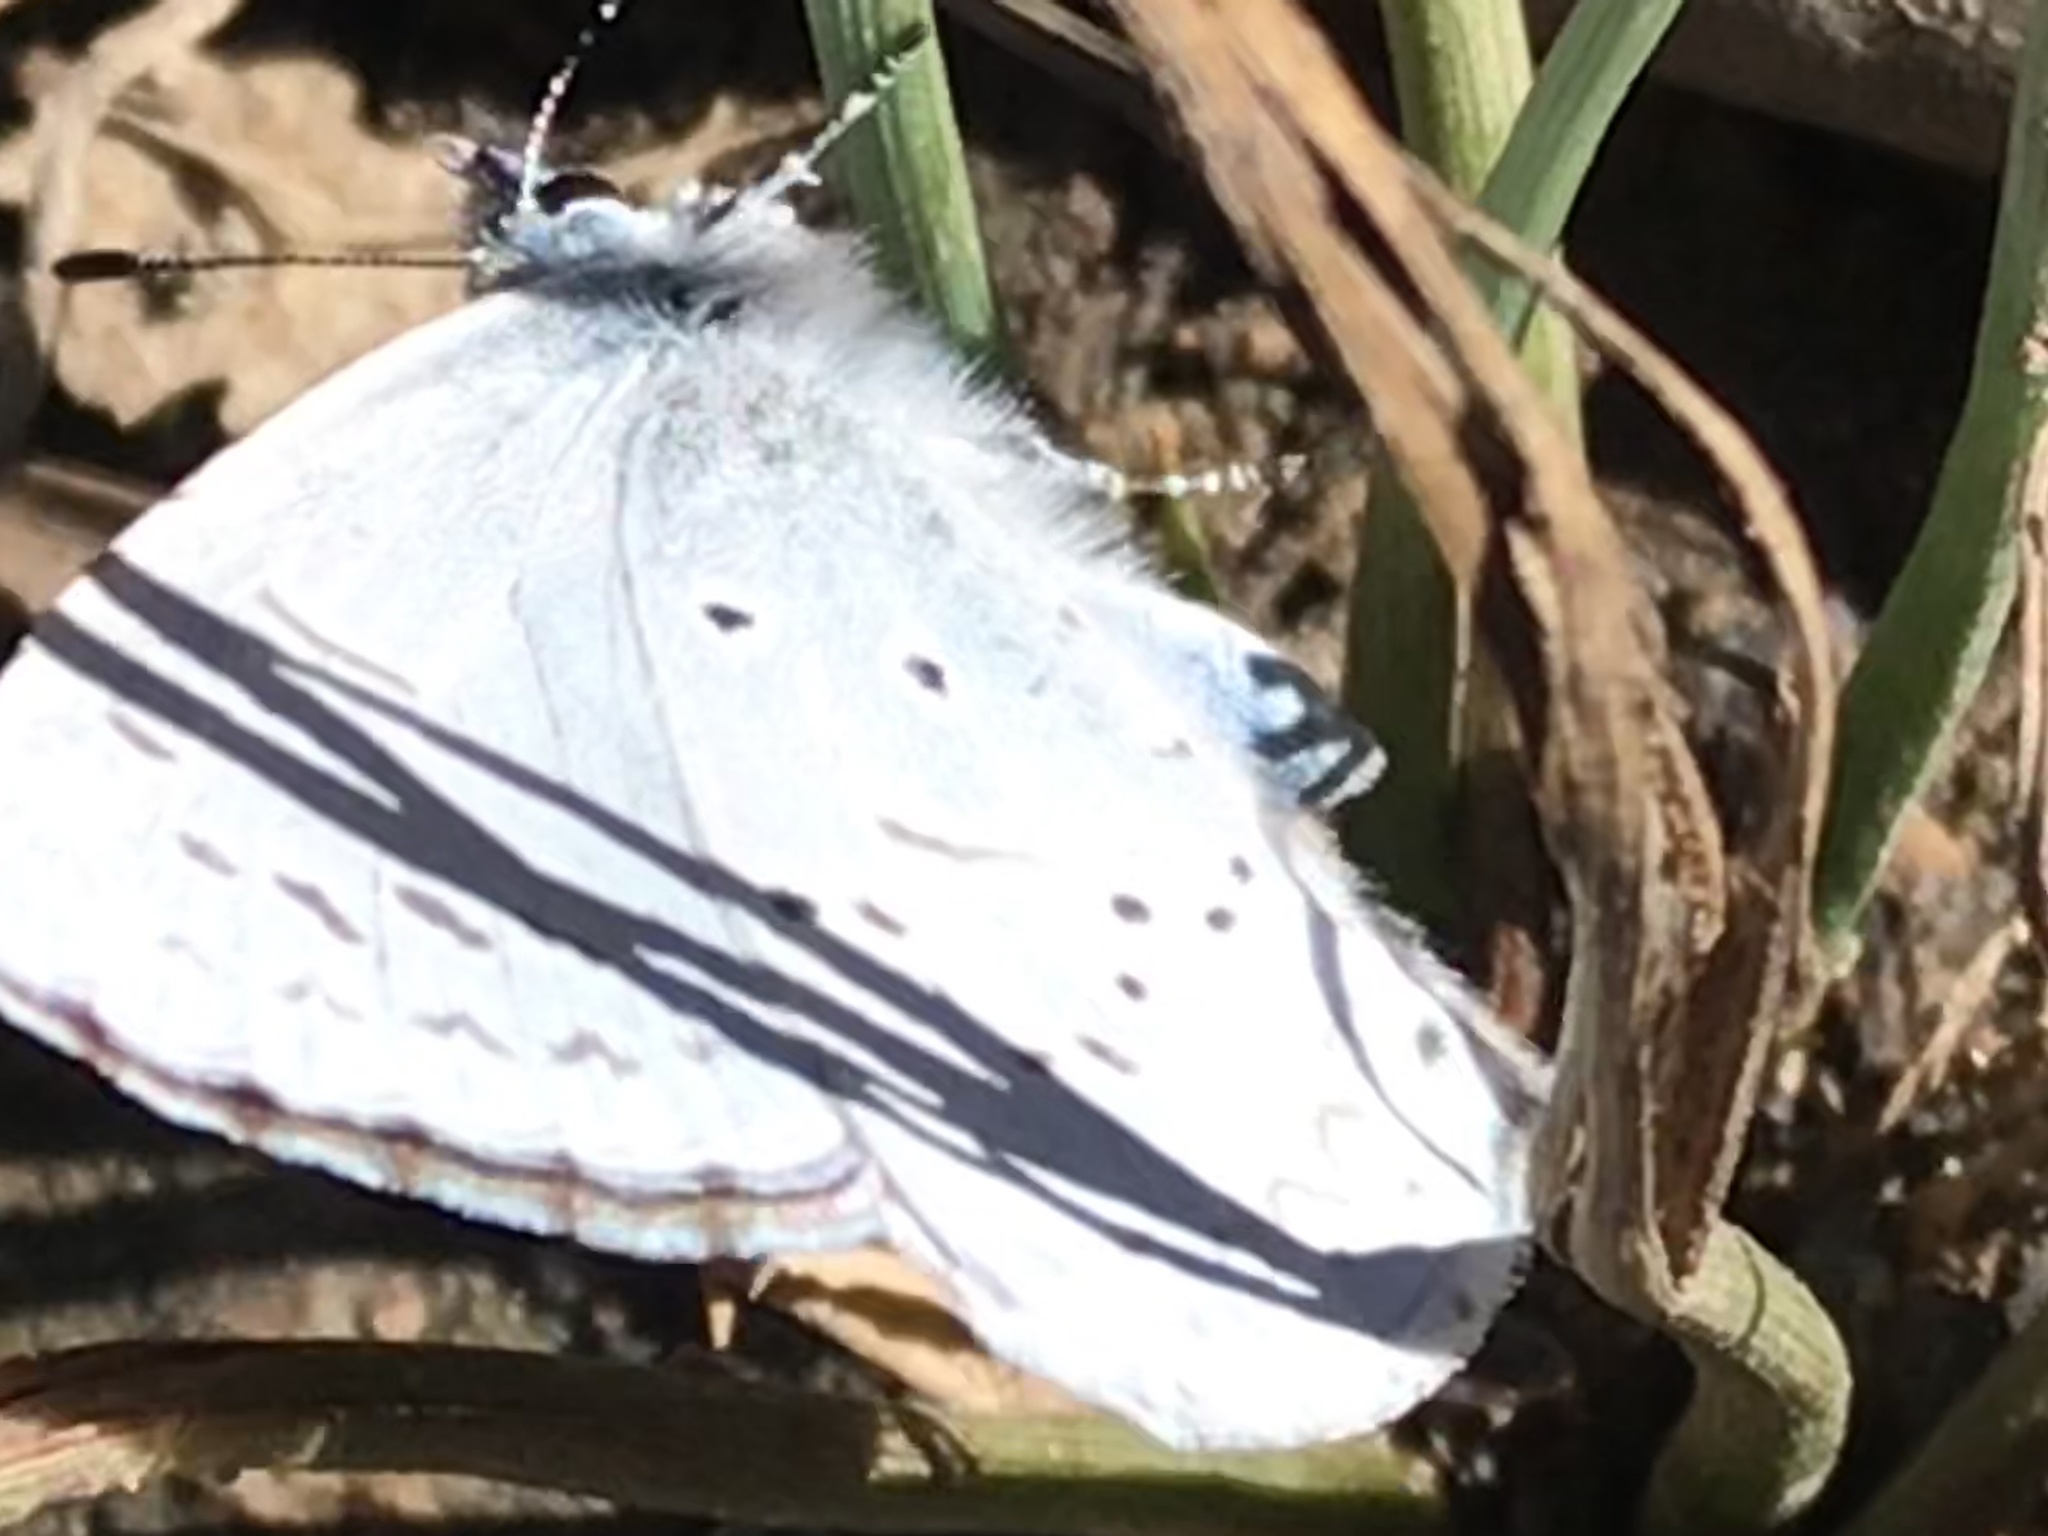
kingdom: Animalia
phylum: Arthropoda
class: Insecta
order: Lepidoptera
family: Lycaenidae
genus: Celastrina
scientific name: Celastrina ladon
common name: Spring azure
